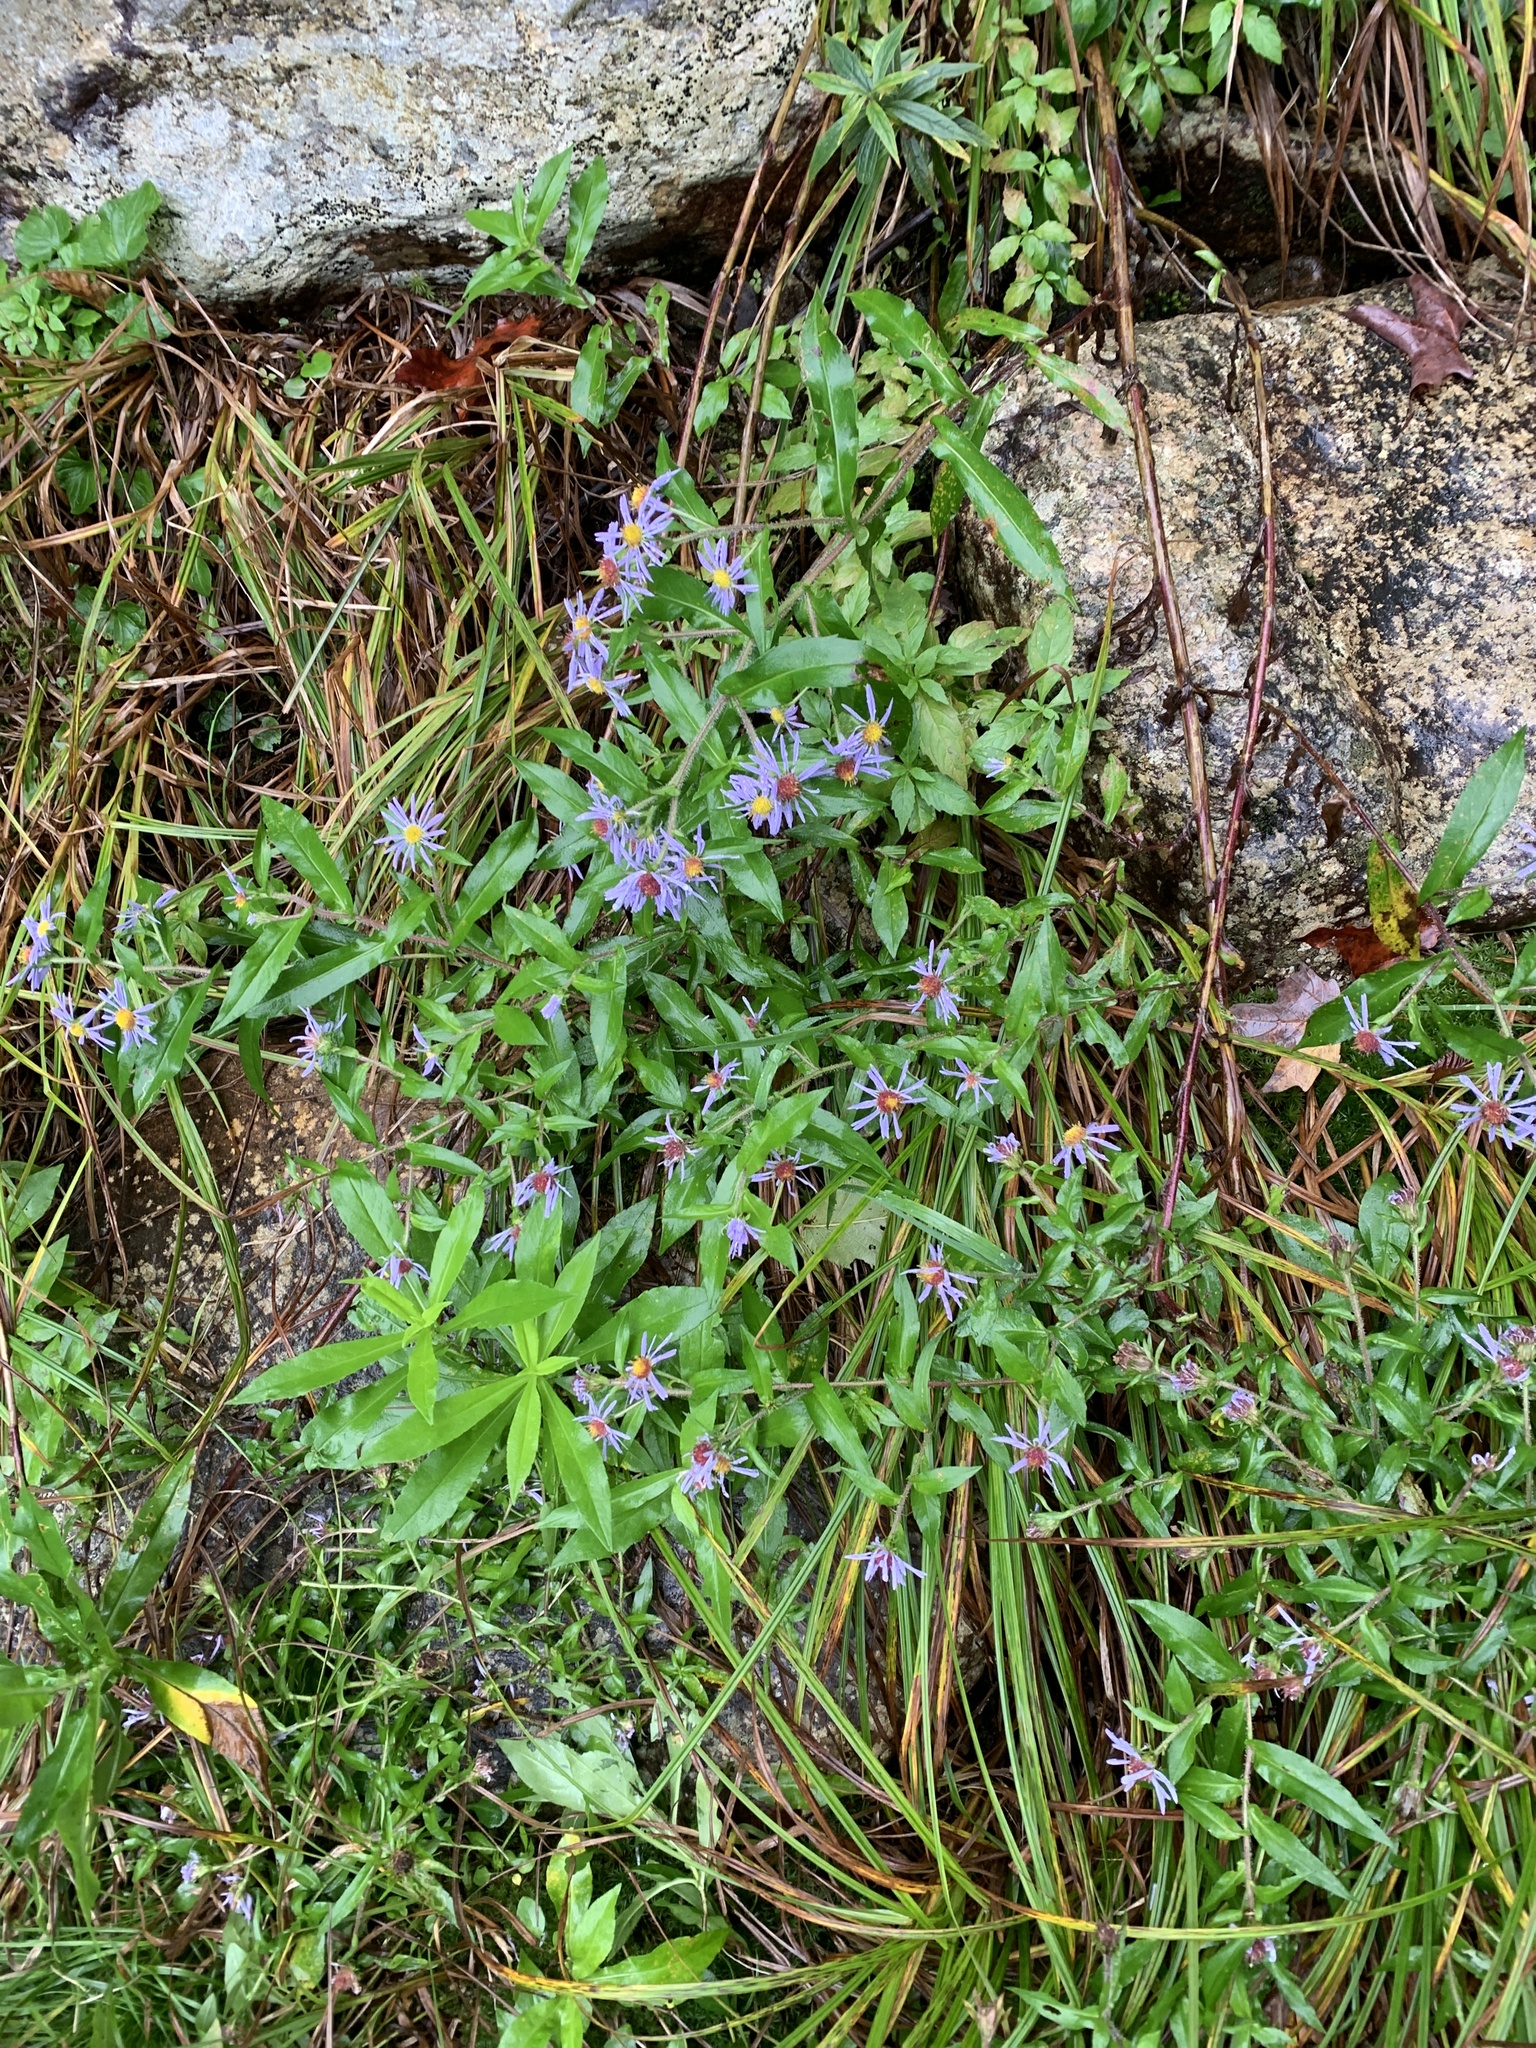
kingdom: Plantae
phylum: Tracheophyta
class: Magnoliopsida
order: Asterales
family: Asteraceae
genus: Symphyotrichum
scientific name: Symphyotrichum puniceum
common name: Bog aster
